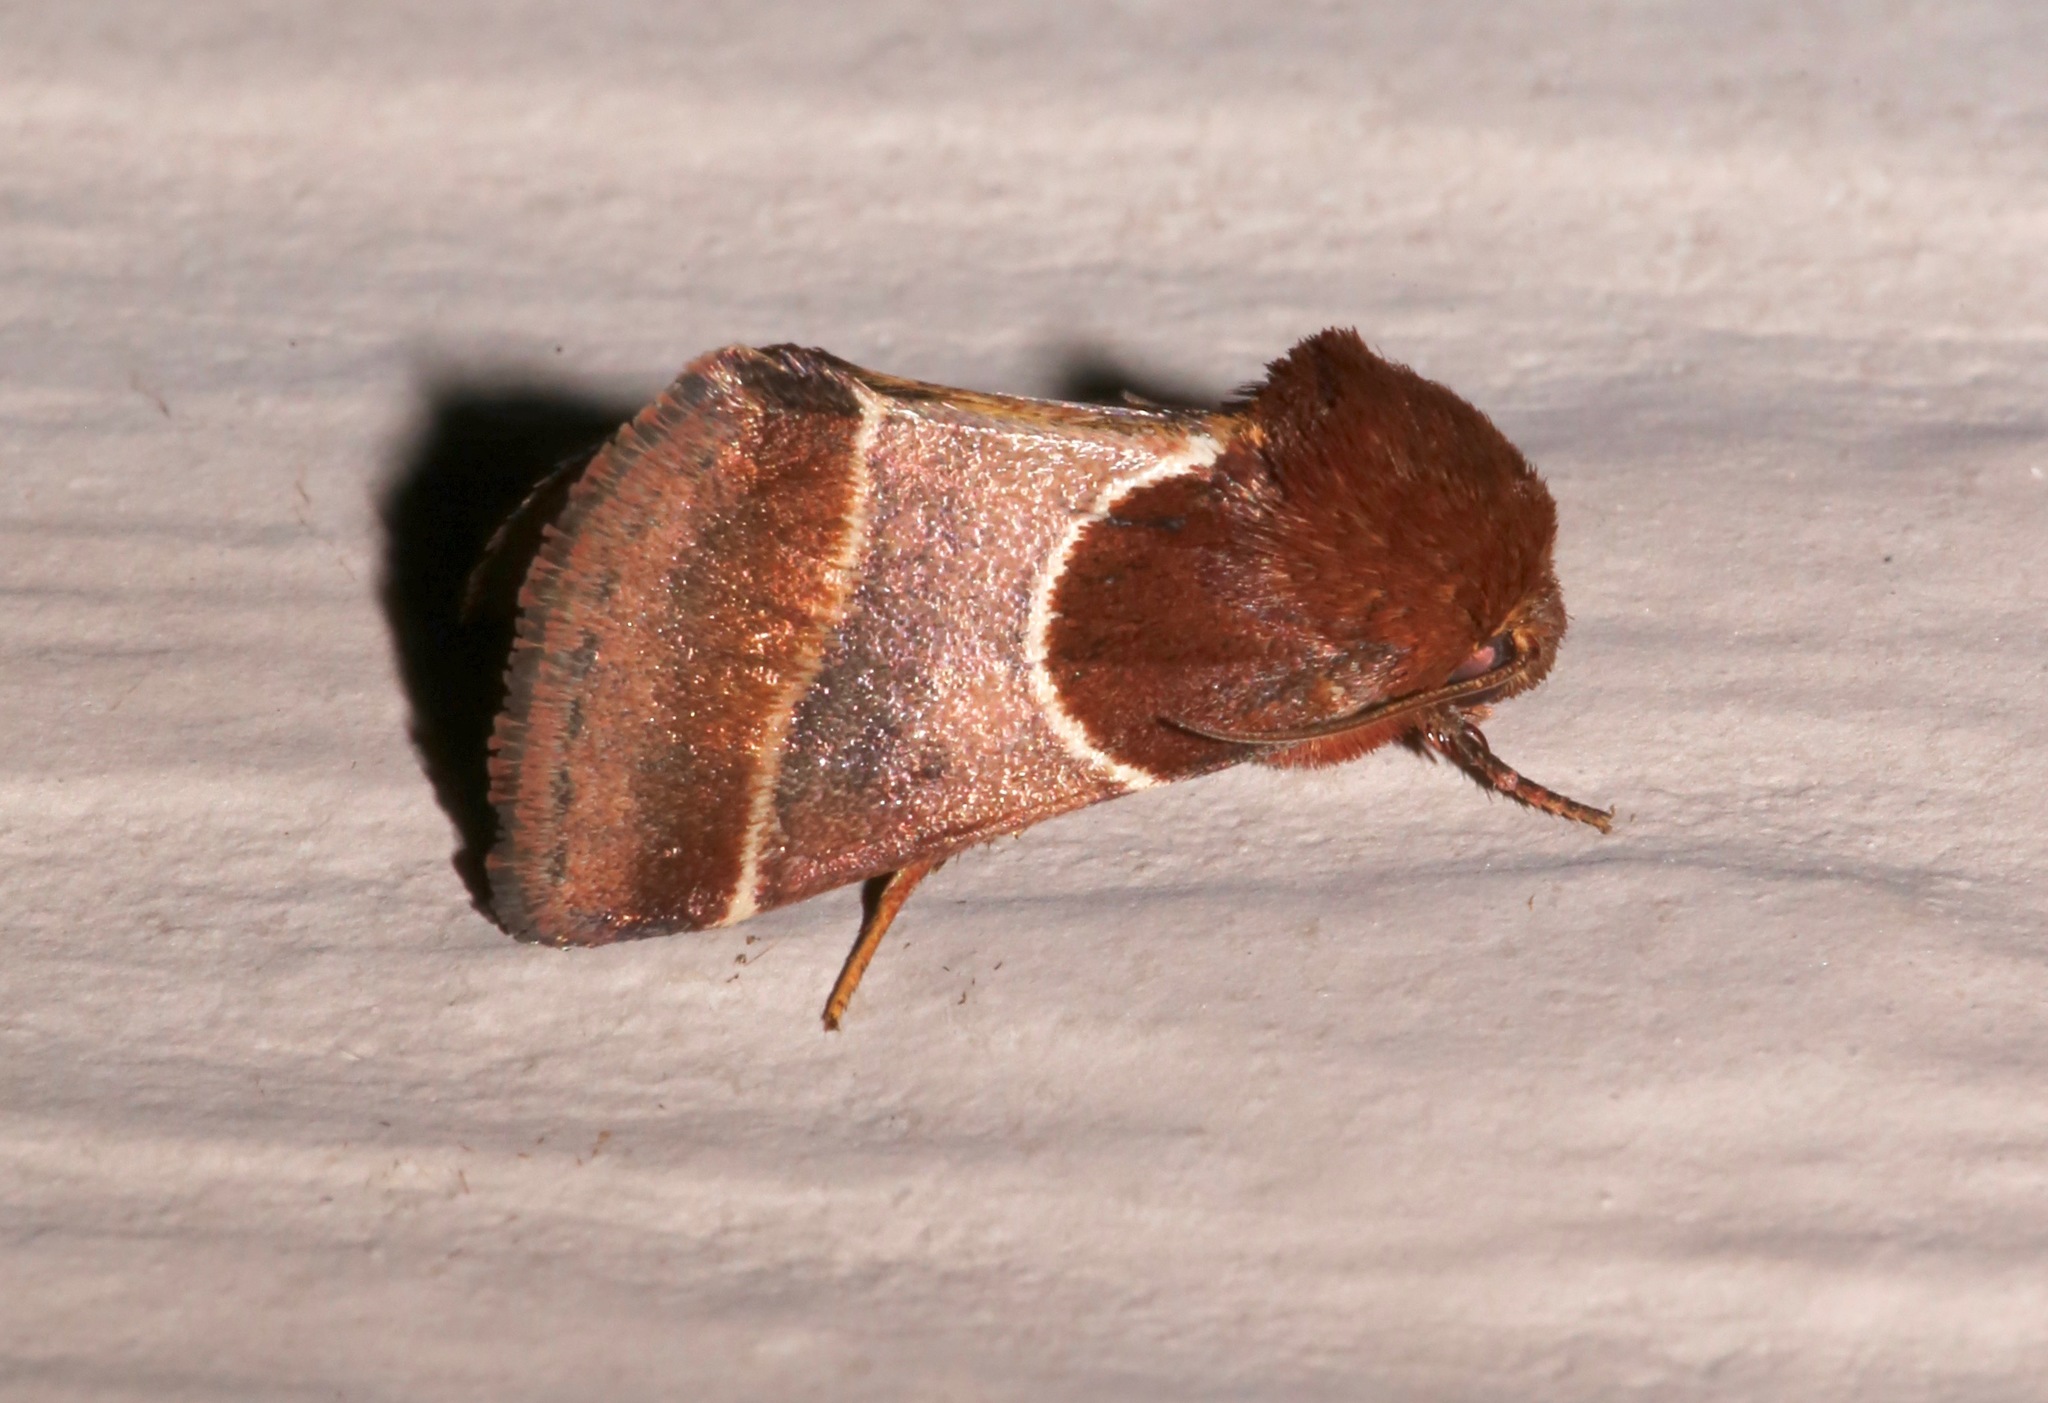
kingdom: Animalia
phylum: Arthropoda
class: Insecta
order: Lepidoptera
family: Noctuidae
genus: Schinia
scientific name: Schinia arcigera
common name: Arcigera flower moth
